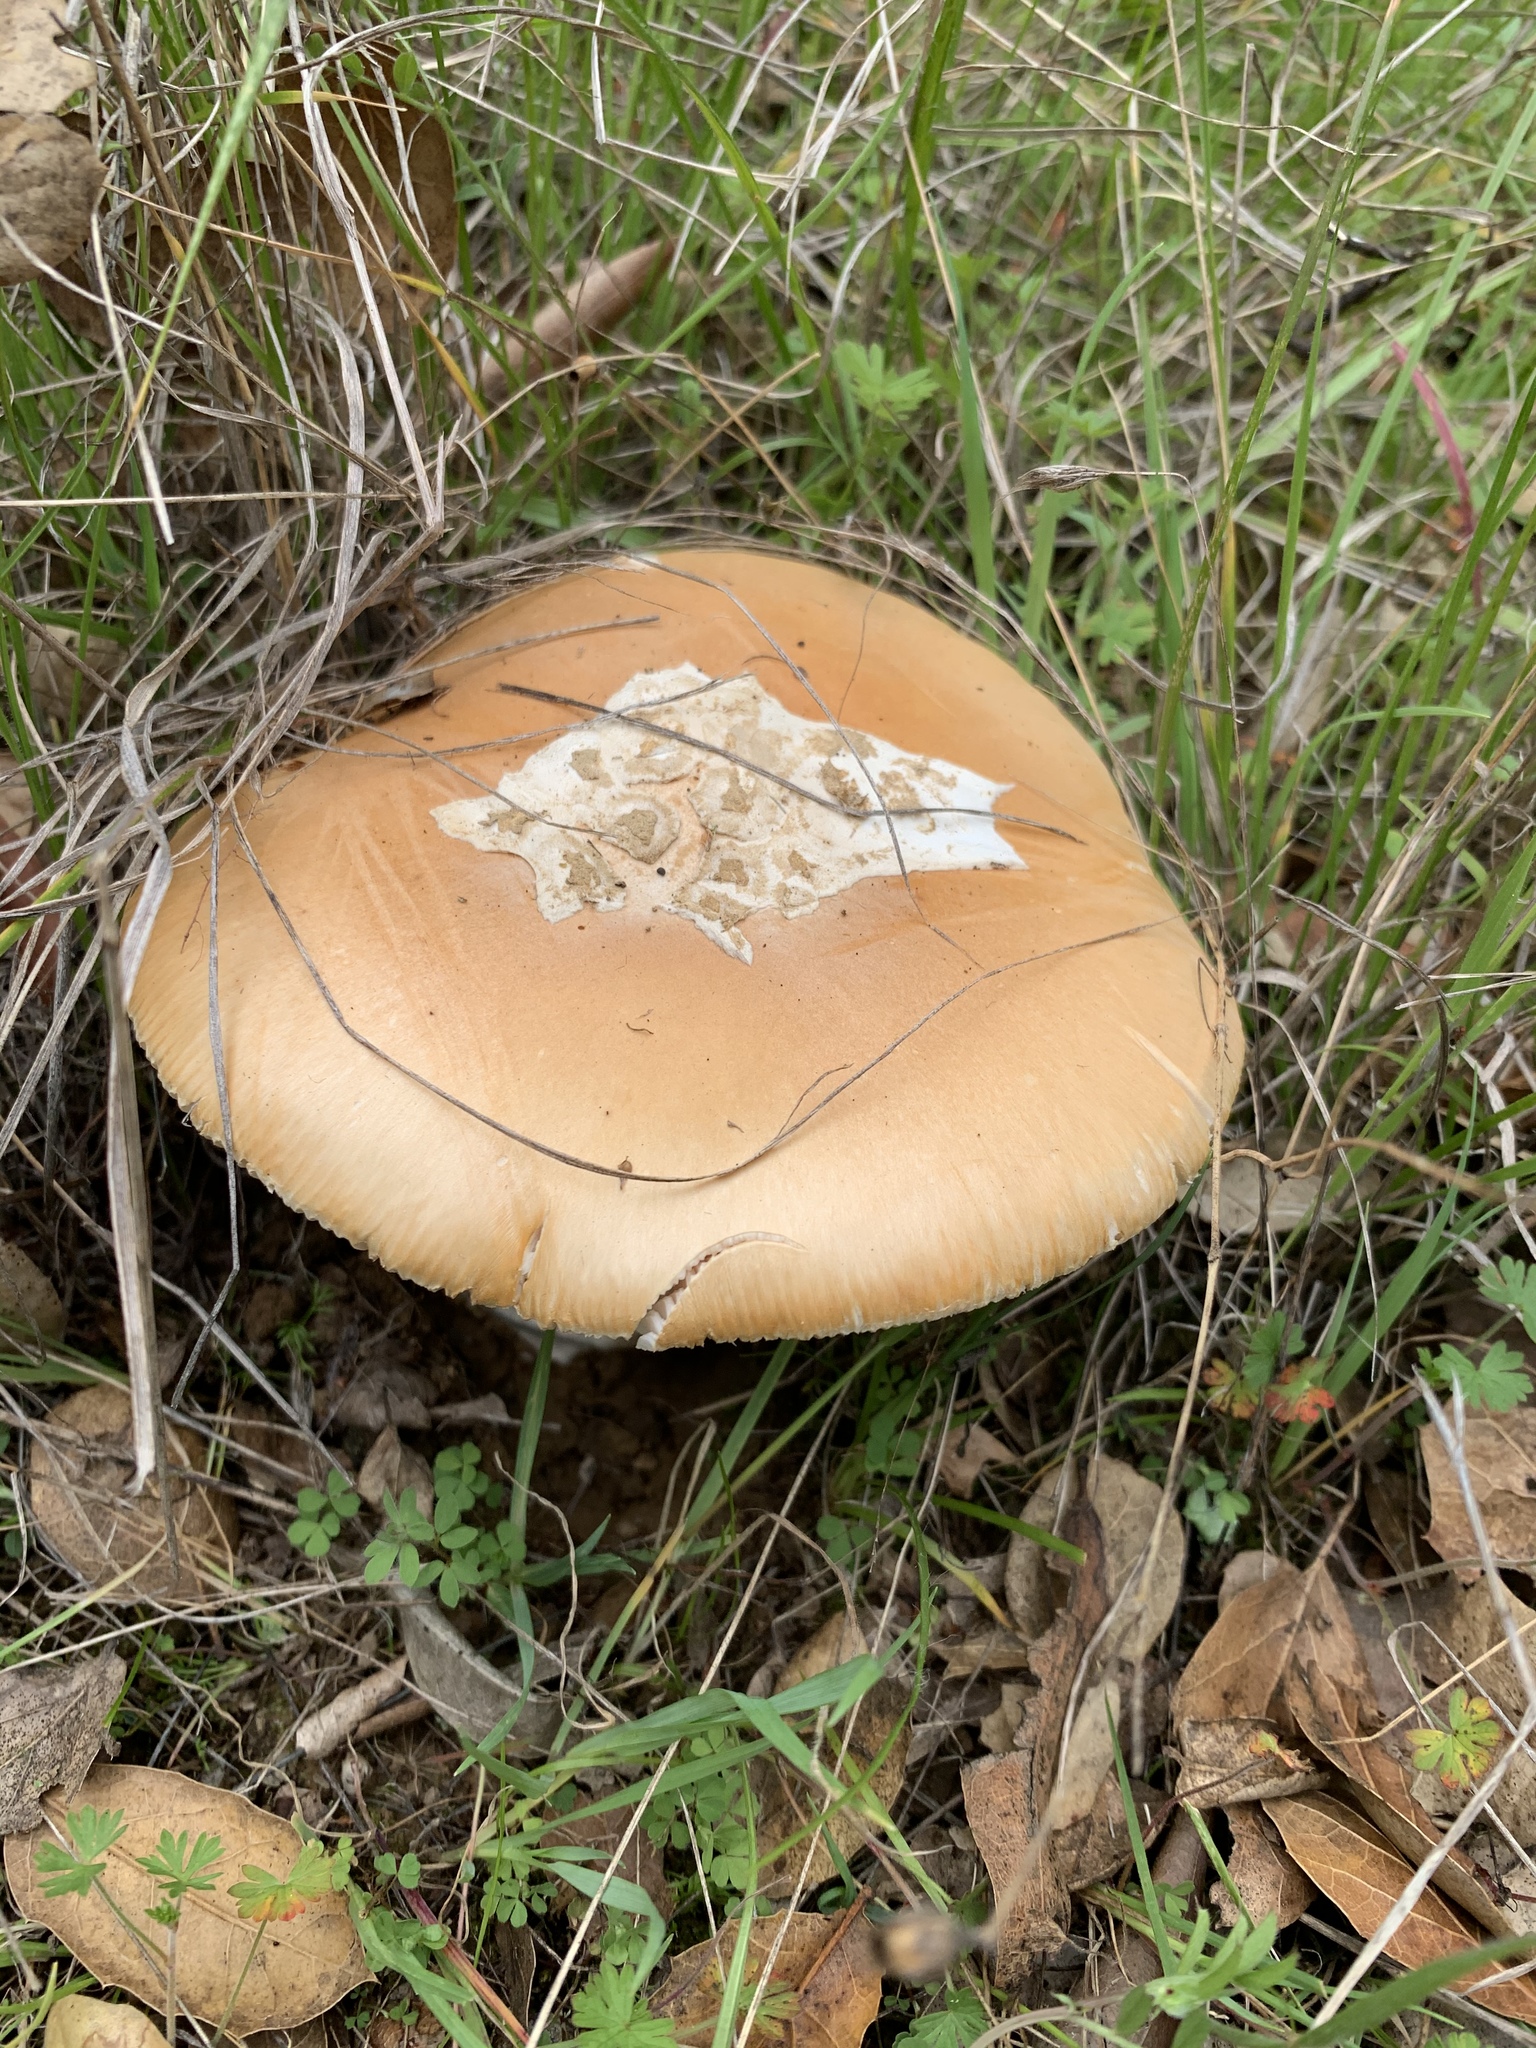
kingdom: Fungi
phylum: Basidiomycota
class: Agaricomycetes
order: Agaricales
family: Amanitaceae
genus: Amanita
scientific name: Amanita velosa
